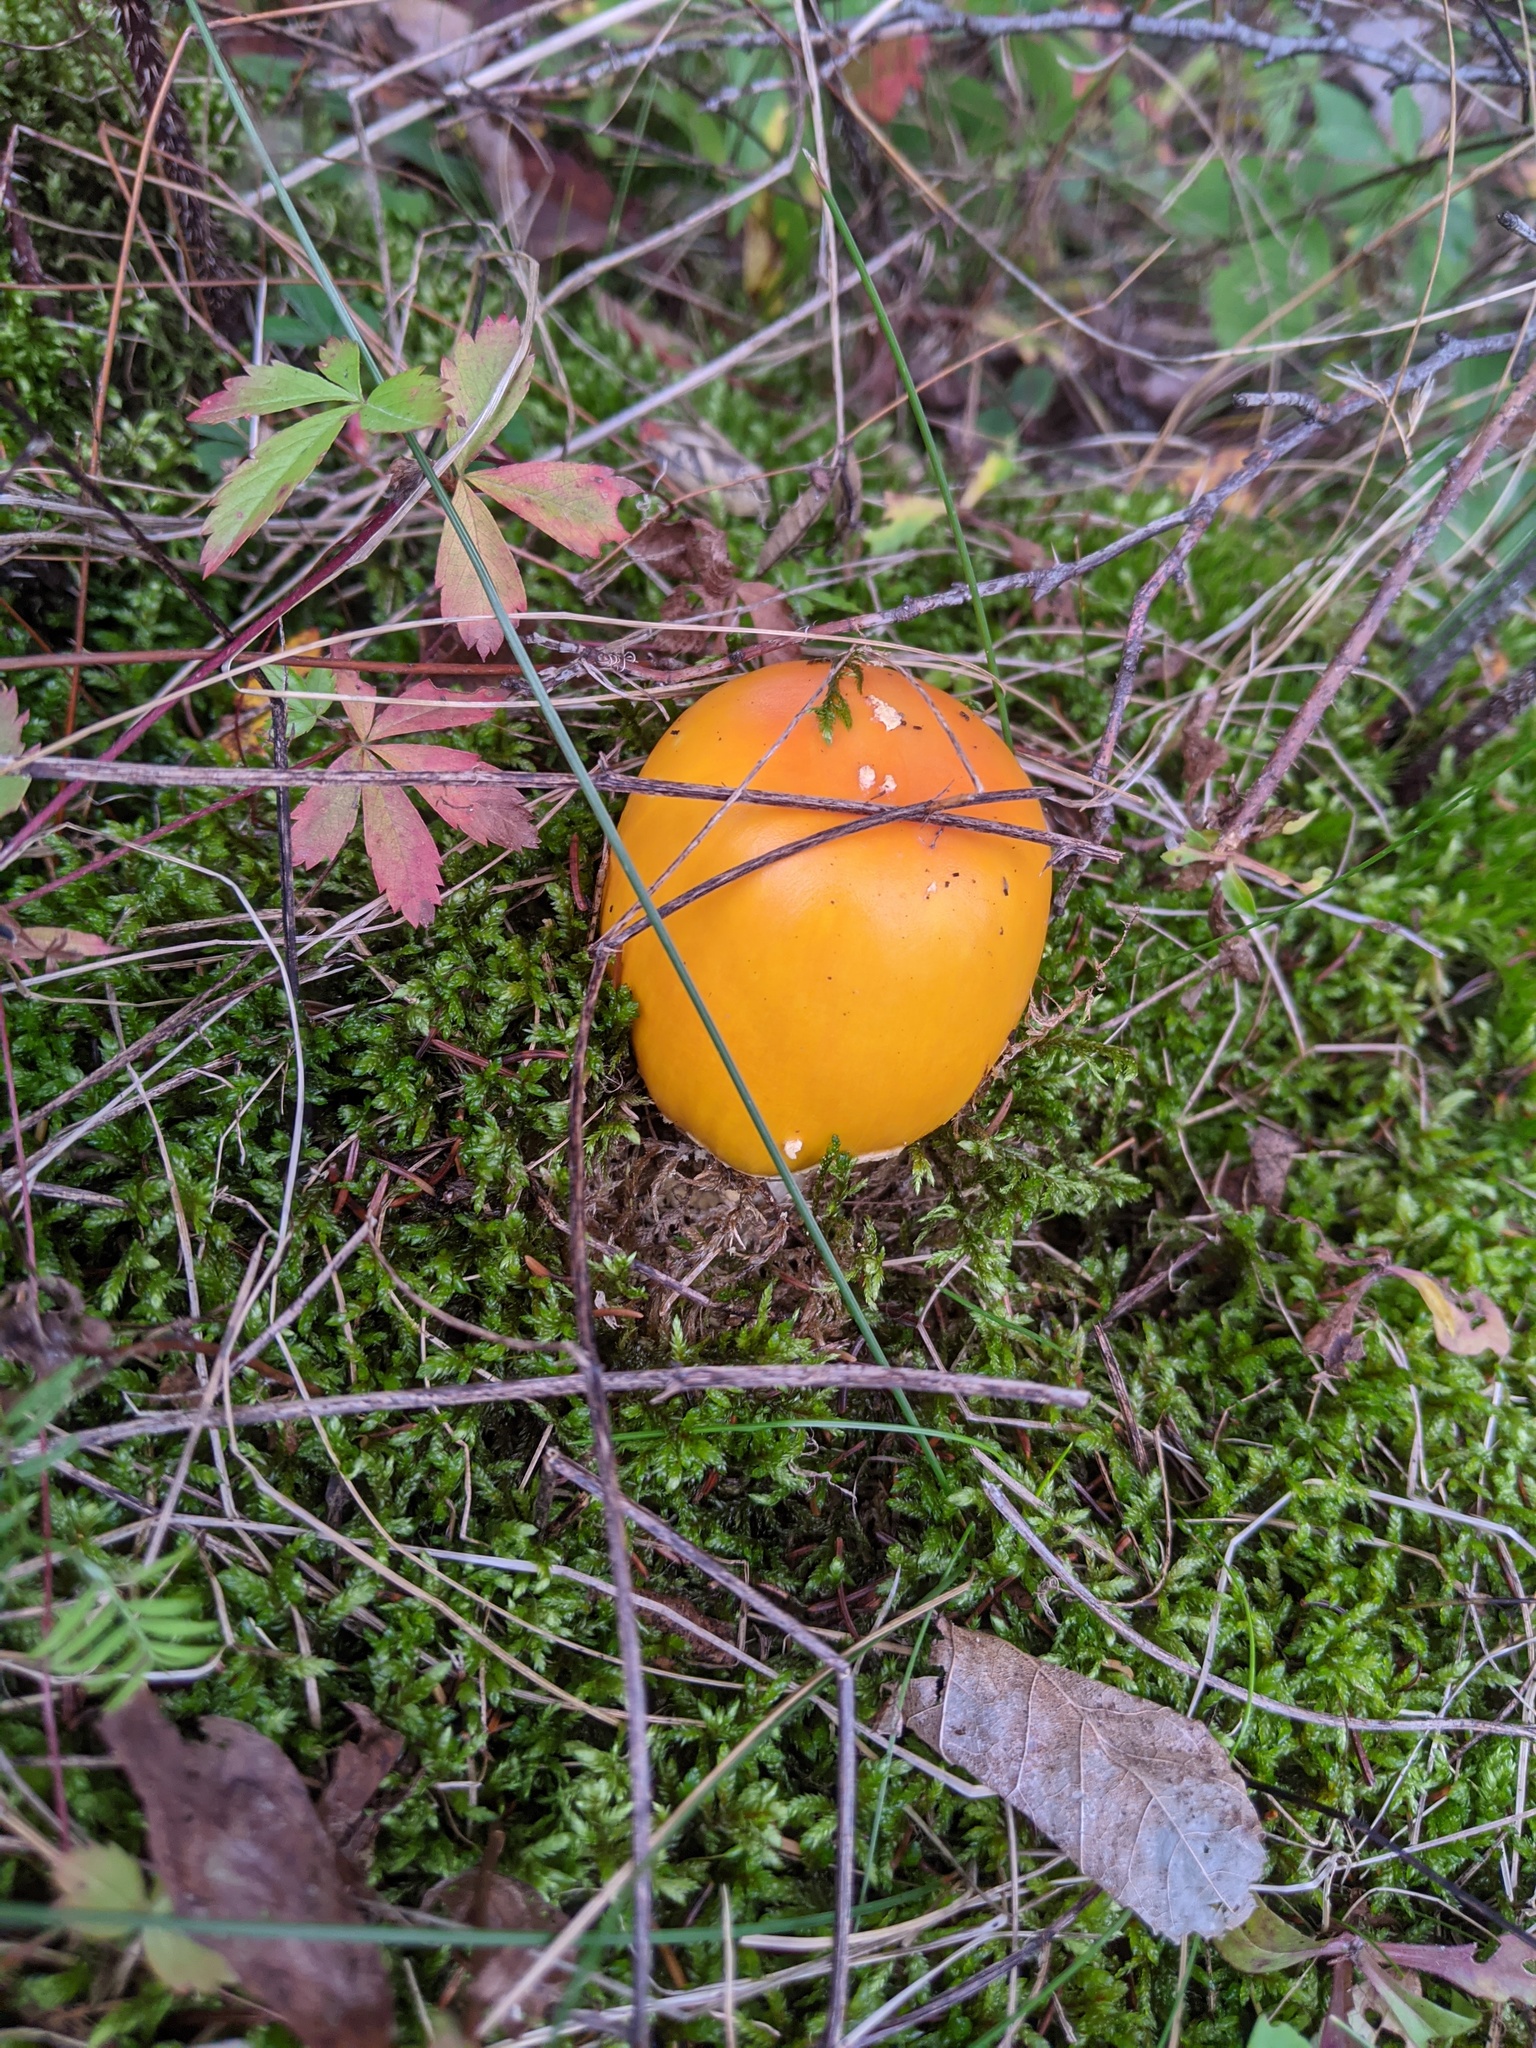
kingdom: Fungi
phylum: Basidiomycota
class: Agaricomycetes
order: Agaricales
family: Amanitaceae
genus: Amanita
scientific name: Amanita muscaria
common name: Fly agaric
